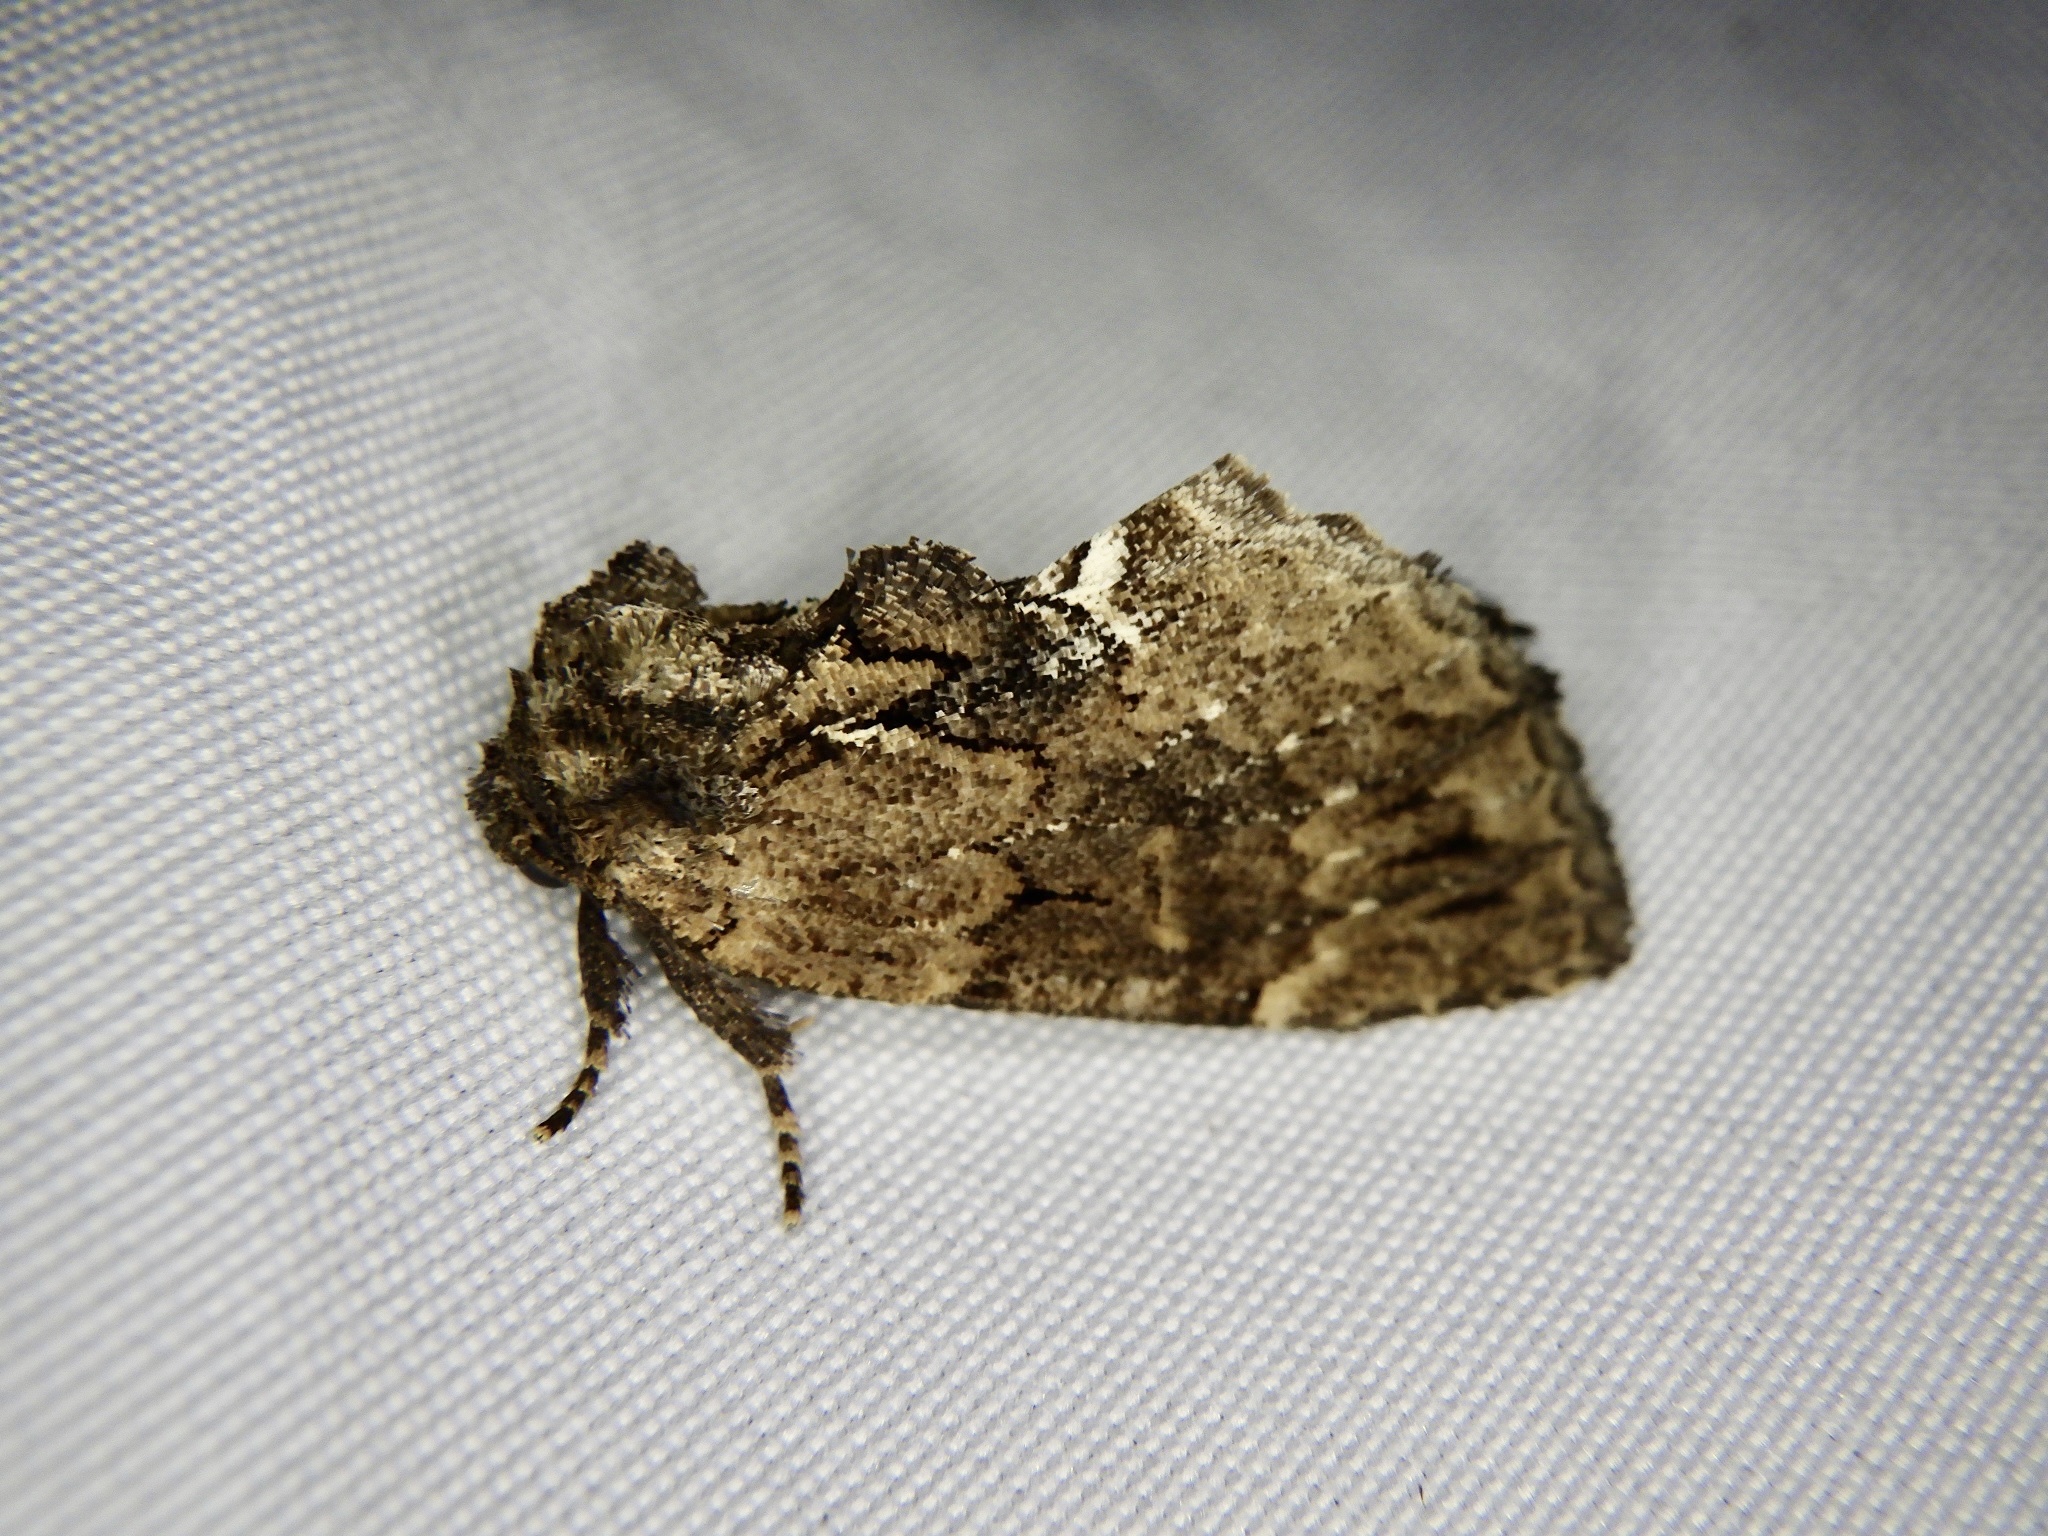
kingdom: Animalia
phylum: Arthropoda
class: Insecta
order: Lepidoptera
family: Notodontidae
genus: Lophontosia
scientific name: Lophontosia
